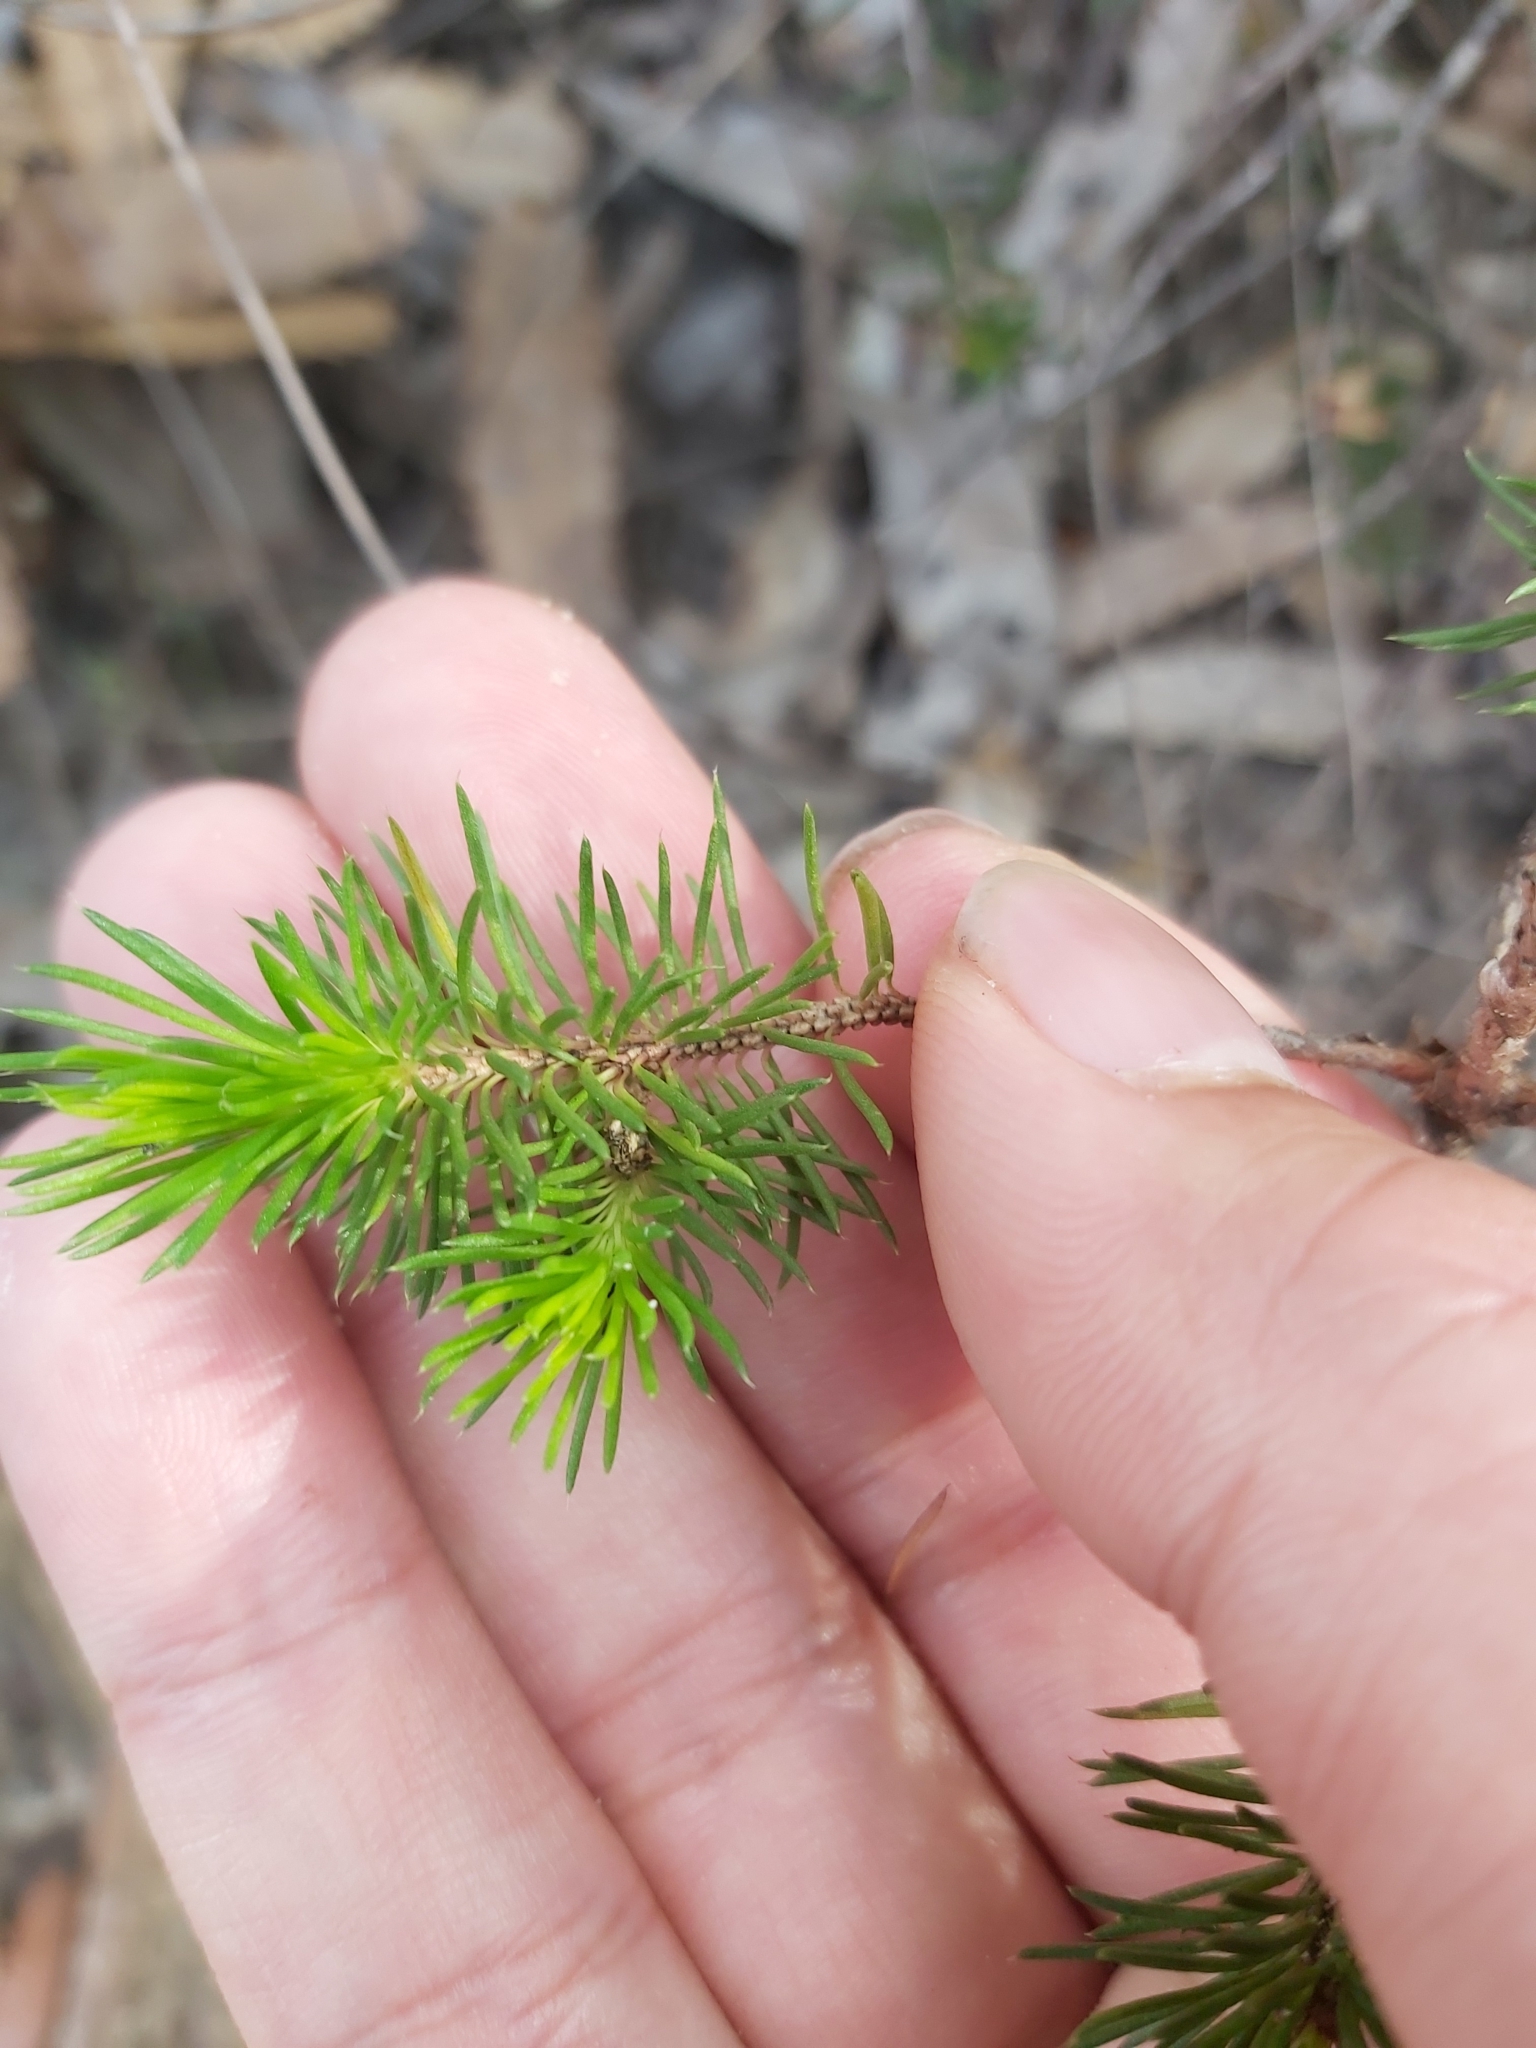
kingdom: Plantae
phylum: Tracheophyta
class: Magnoliopsida
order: Myrtales
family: Myrtaceae
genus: Darwinia
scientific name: Darwinia fascicularis
